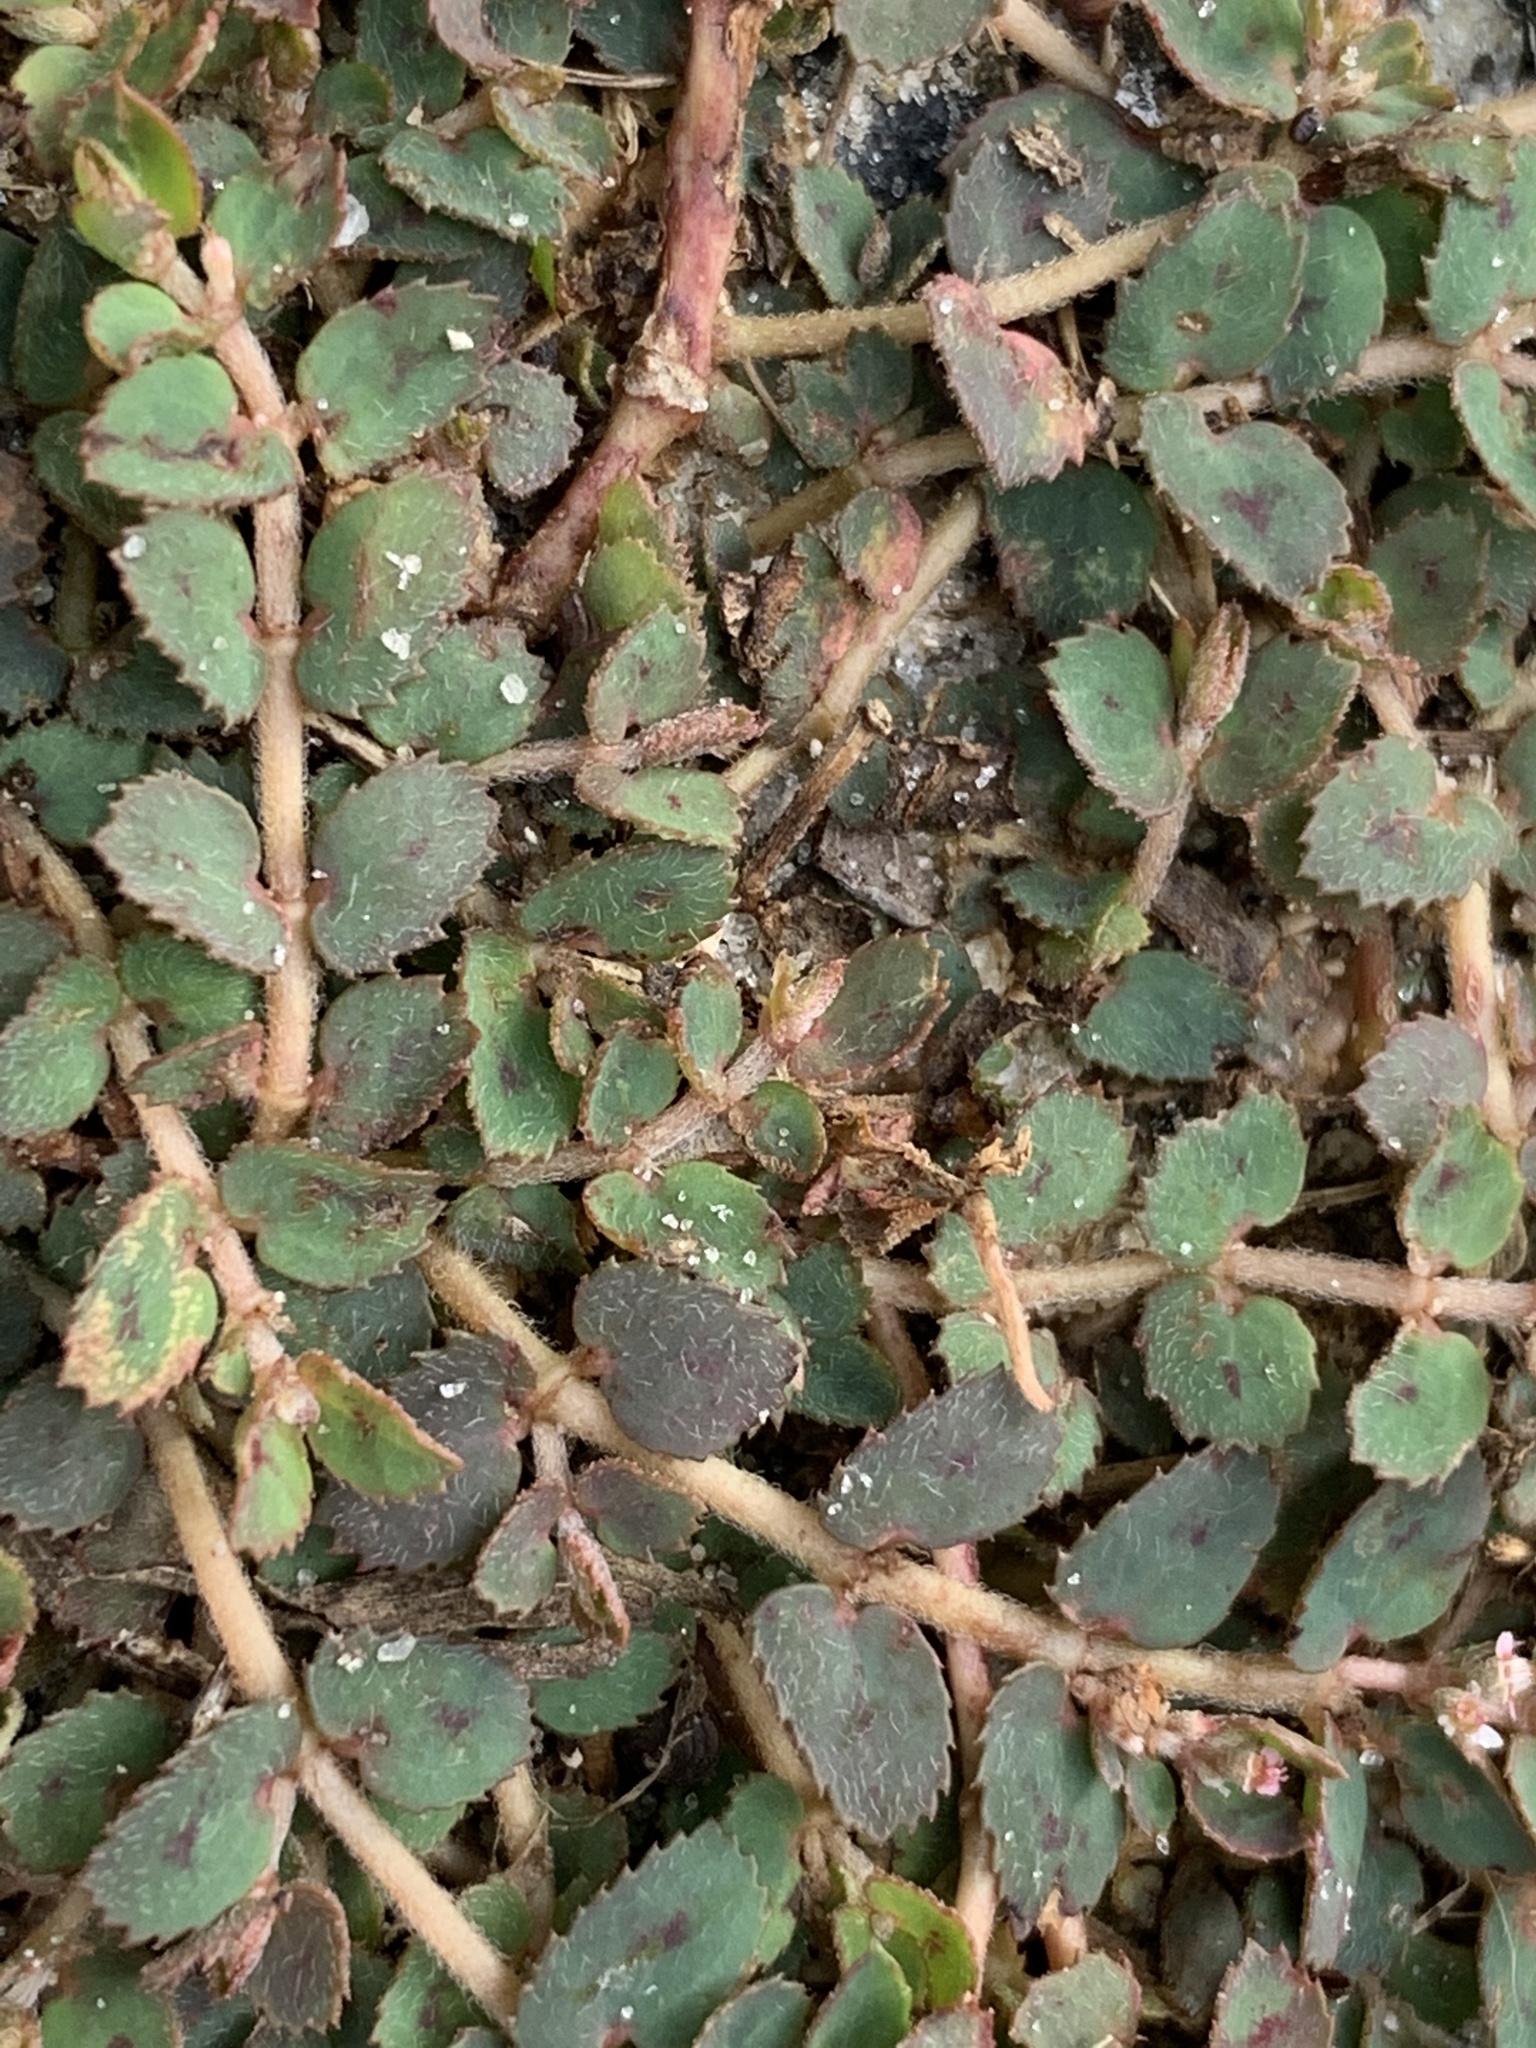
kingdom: Plantae
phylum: Tracheophyta
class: Magnoliopsida
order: Malpighiales
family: Euphorbiaceae
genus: Euphorbia
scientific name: Euphorbia thymifolia
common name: Gulf sandmat
